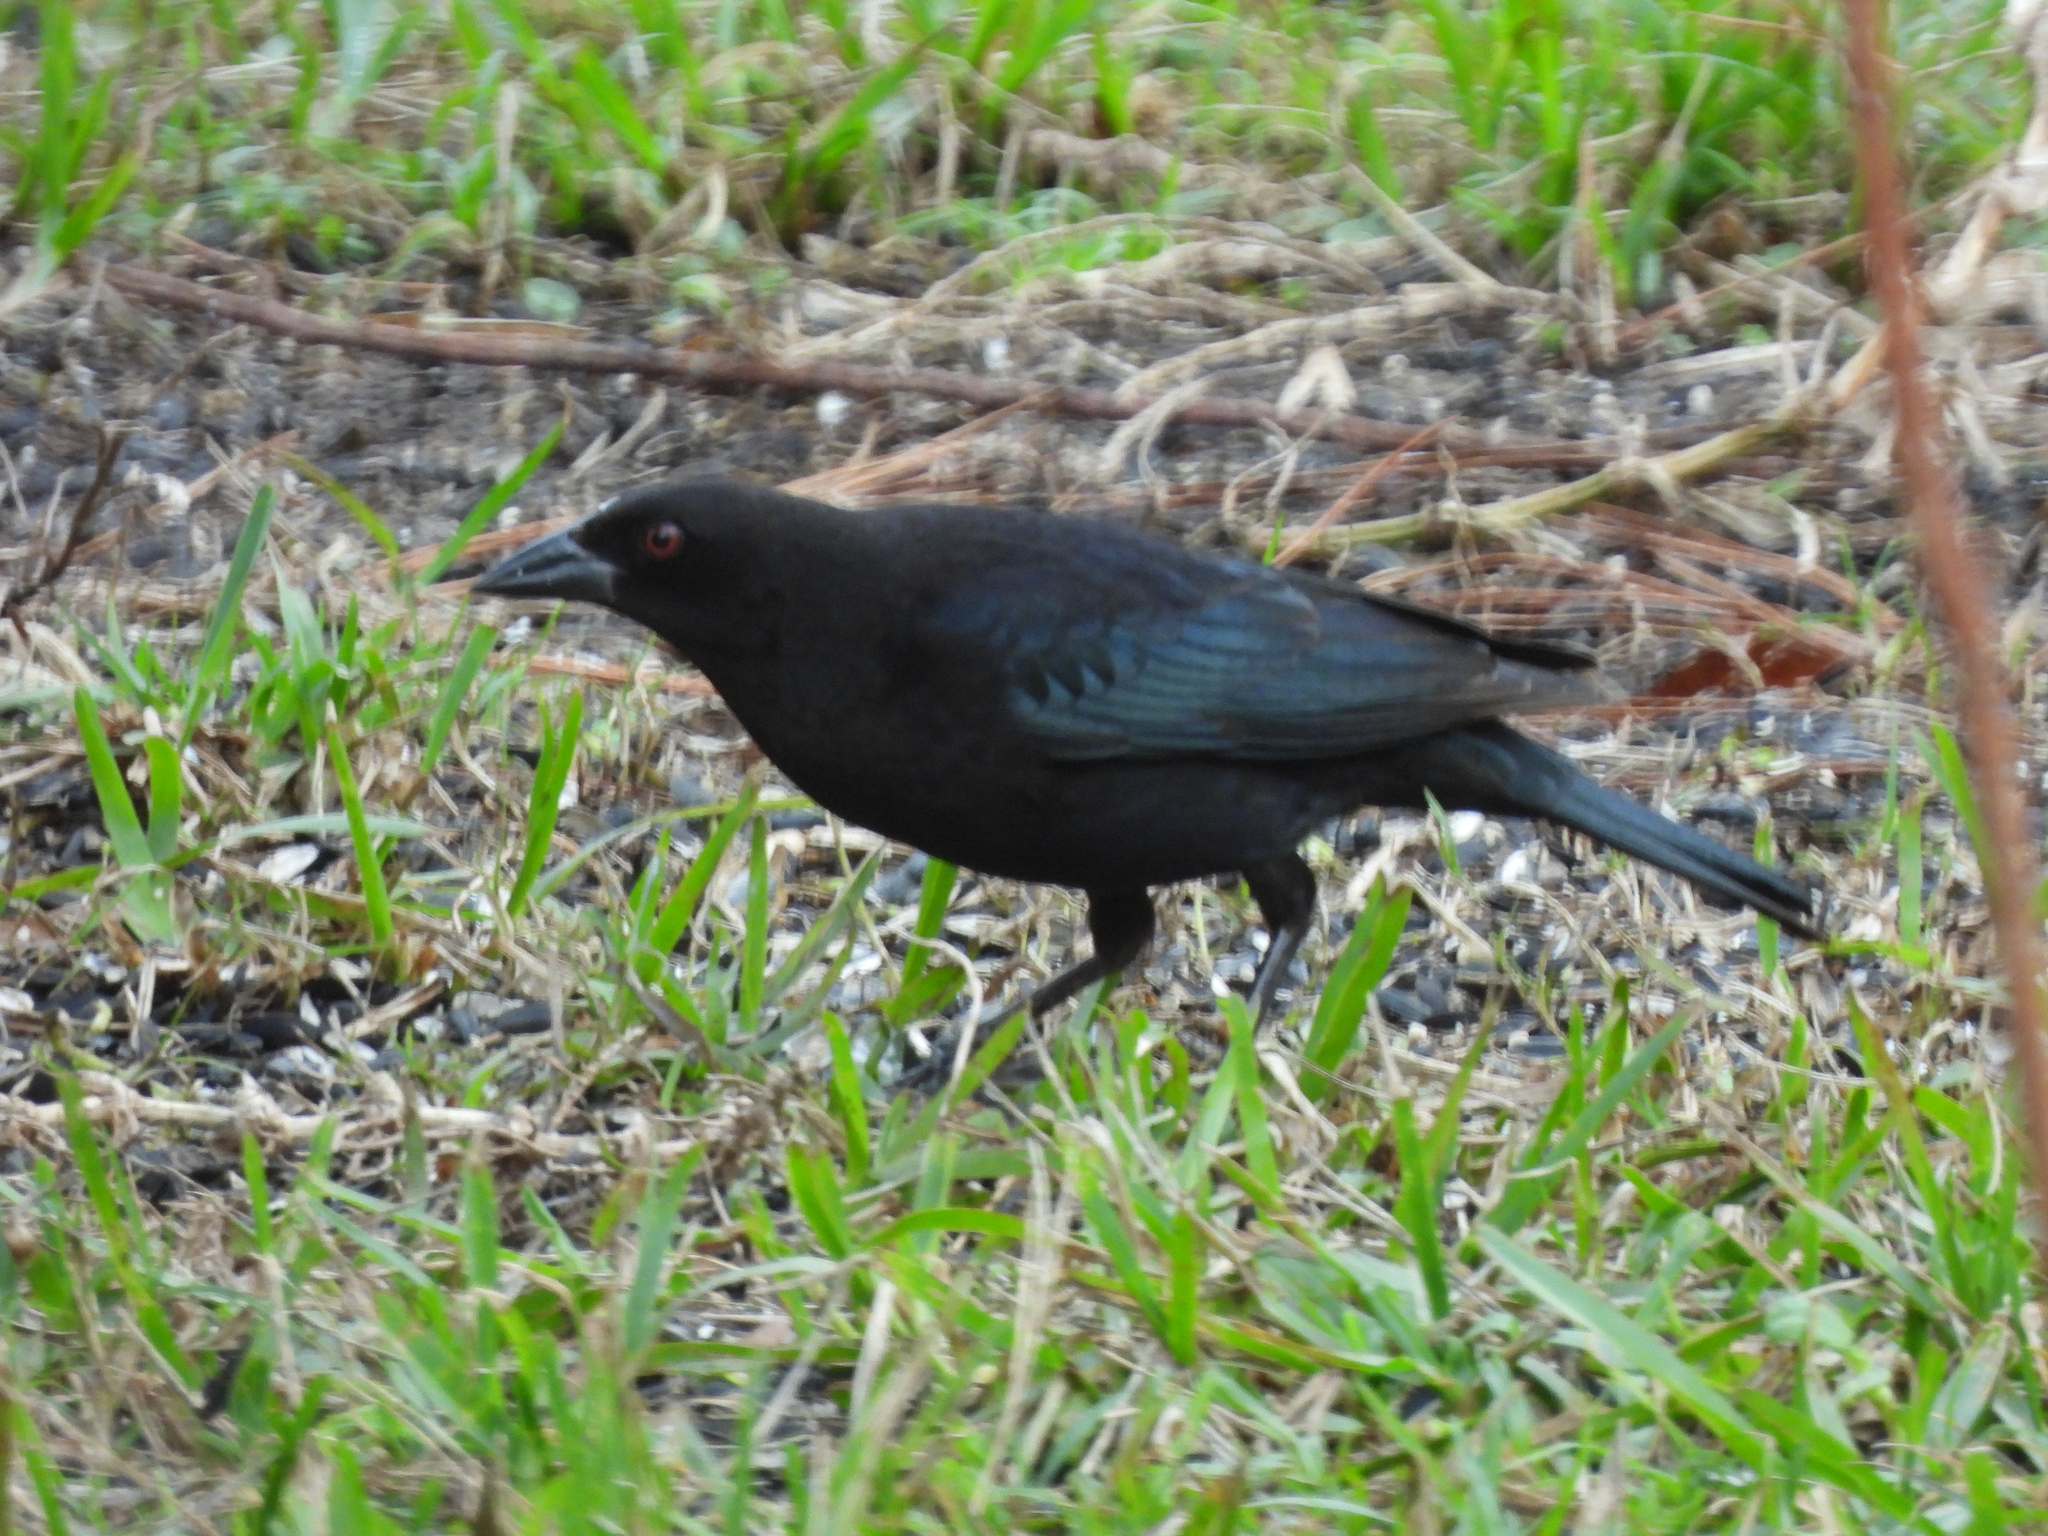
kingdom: Animalia
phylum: Chordata
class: Aves
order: Passeriformes
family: Icteridae
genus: Molothrus
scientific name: Molothrus aeneus
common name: Bronzed cowbird
